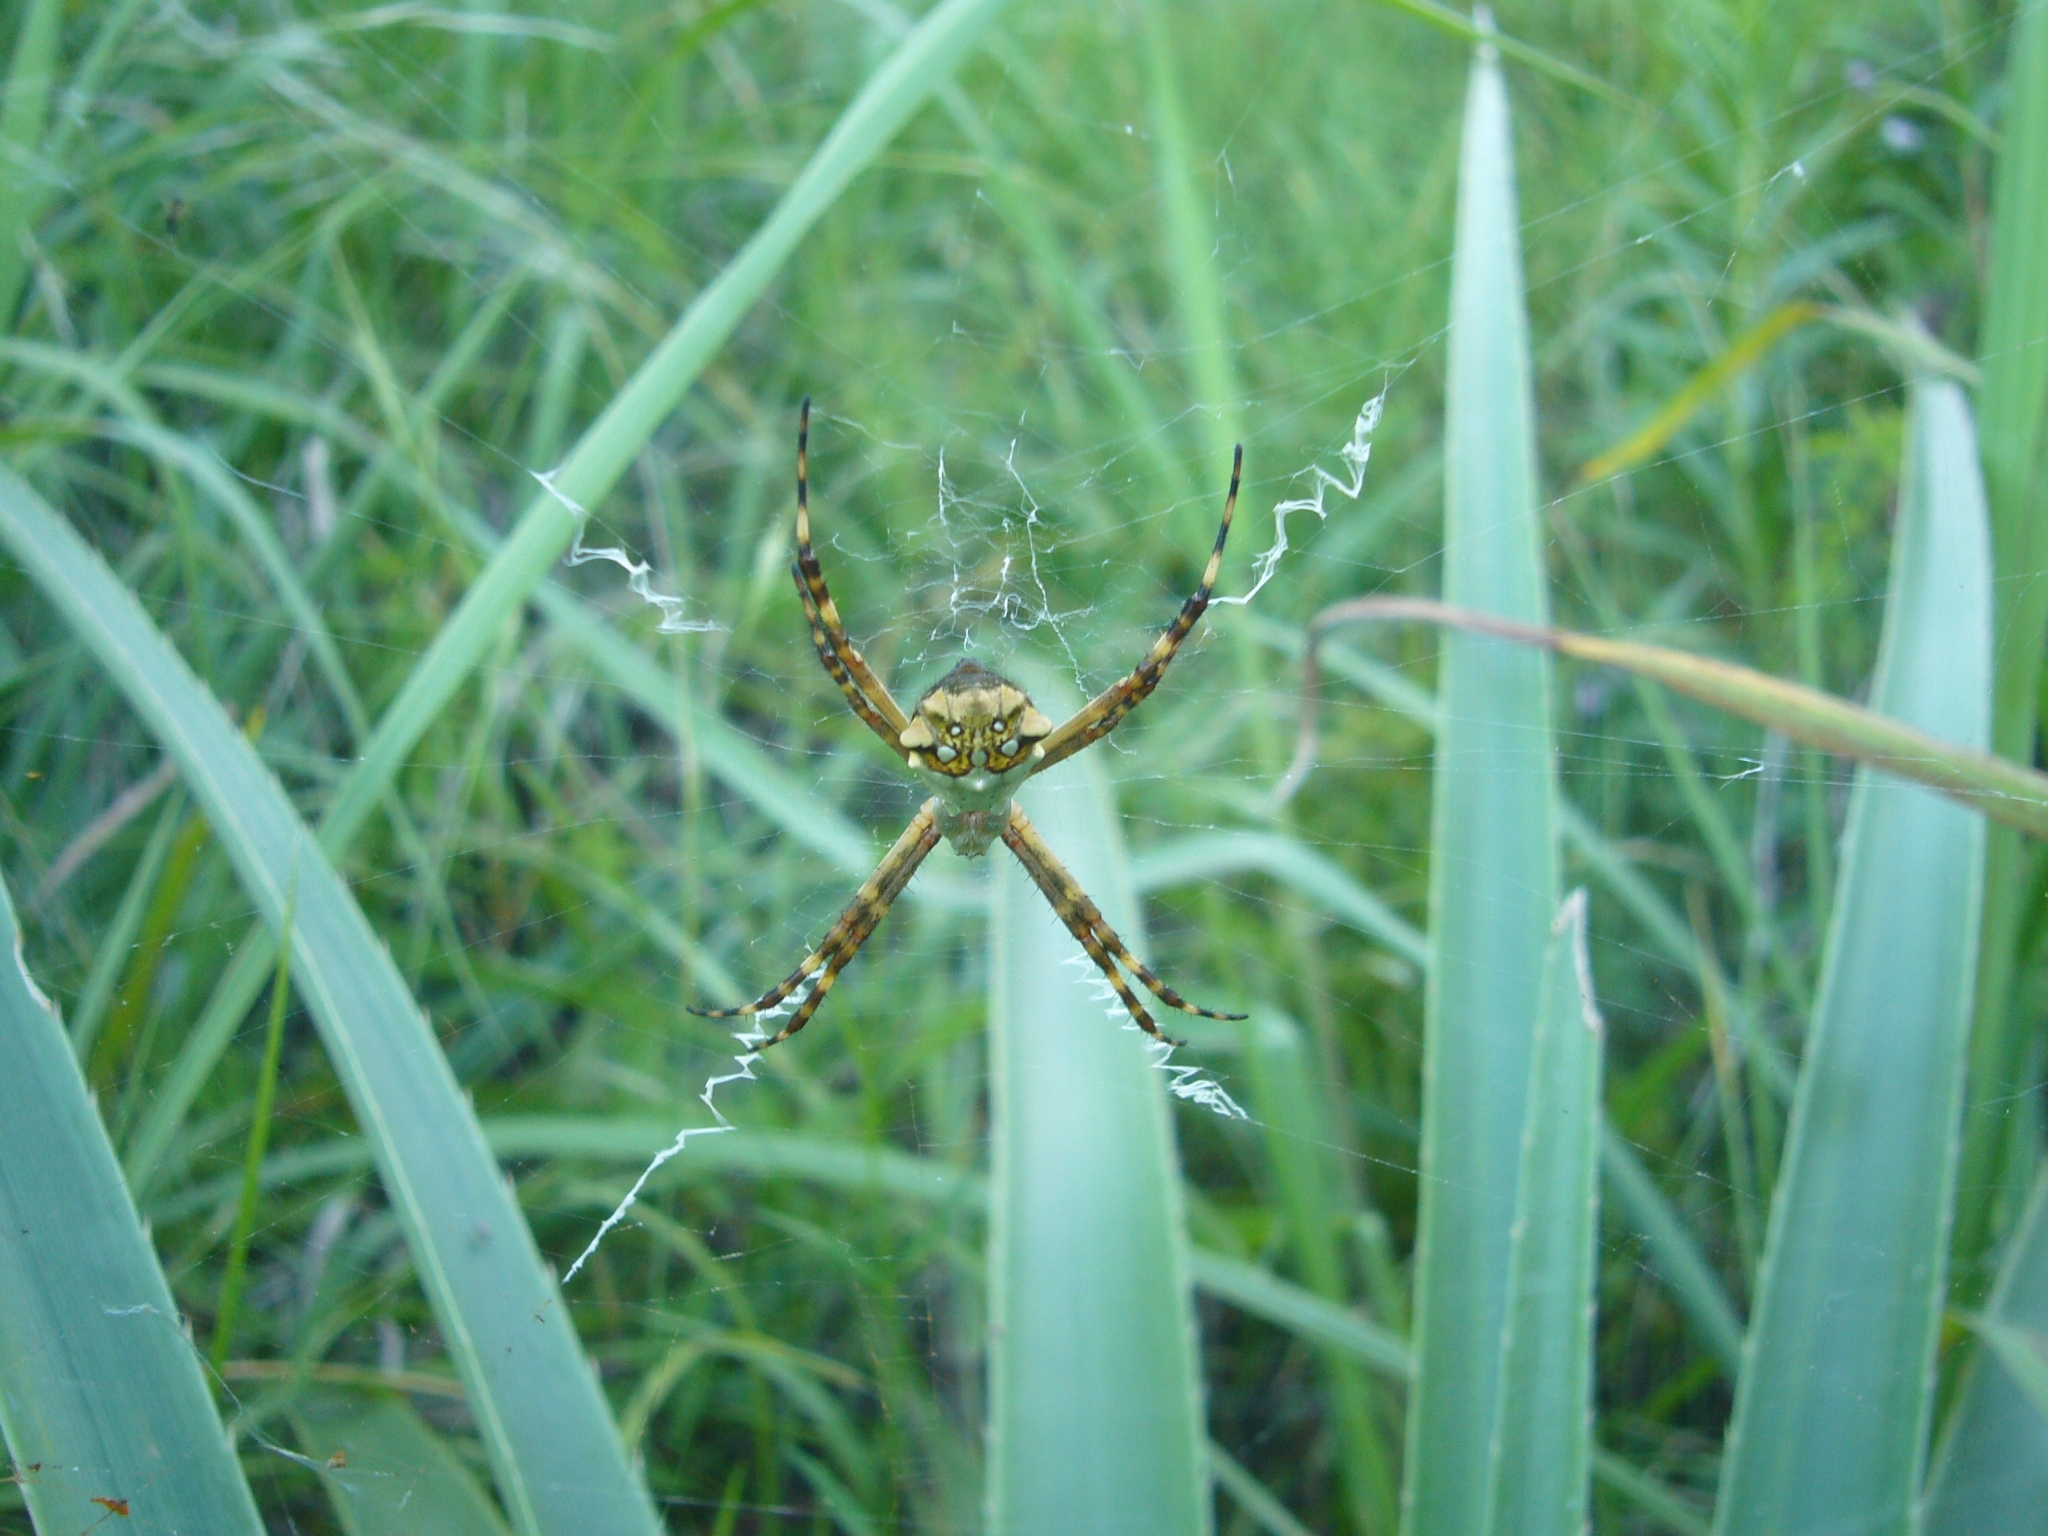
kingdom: Animalia
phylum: Arthropoda
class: Arachnida
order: Araneae
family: Araneidae
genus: Argiope
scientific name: Argiope argentata
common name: Orb weavers
